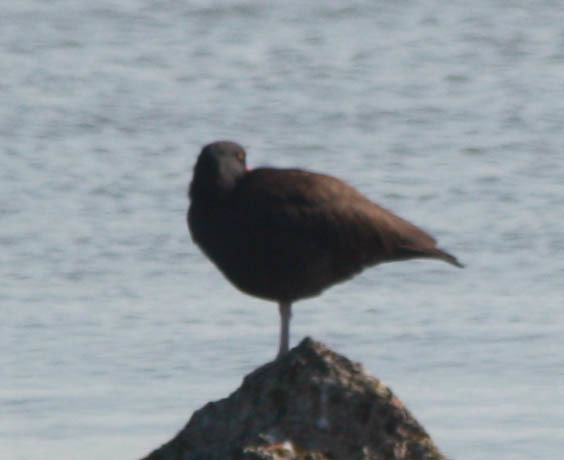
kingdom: Animalia
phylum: Chordata
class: Aves
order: Charadriiformes
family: Haematopodidae
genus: Haematopus
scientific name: Haematopus bachmani
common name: Black oystercatcher
